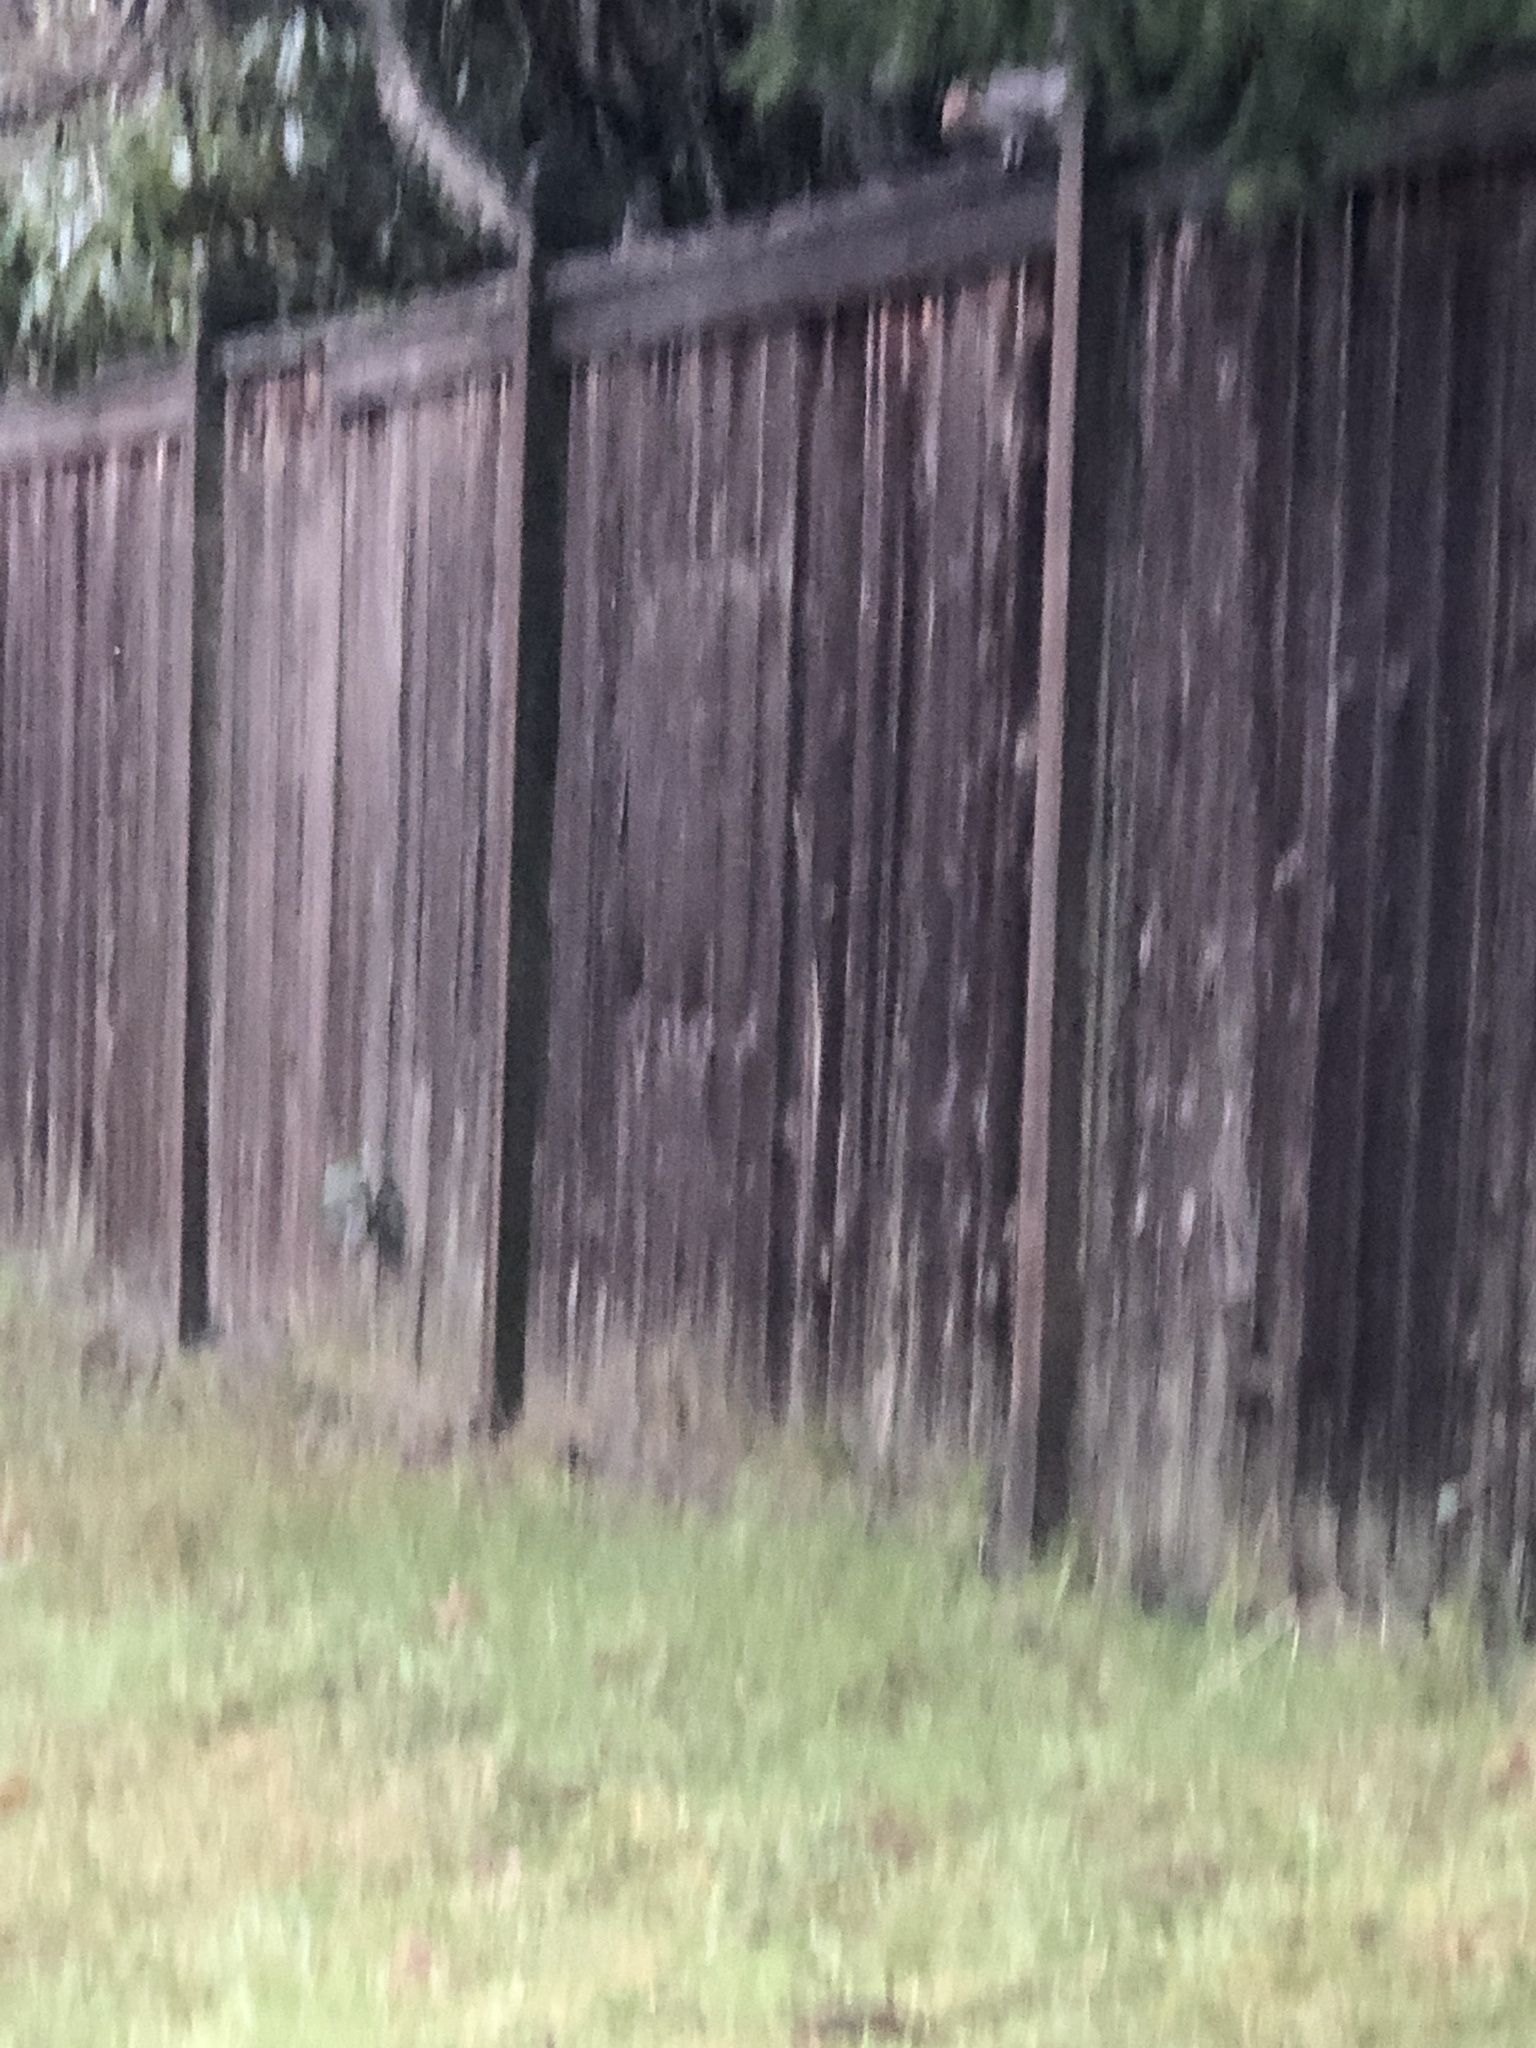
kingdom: Animalia
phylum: Chordata
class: Mammalia
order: Rodentia
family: Sciuridae
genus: Sciurus
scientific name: Sciurus carolinensis
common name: Eastern gray squirrel
